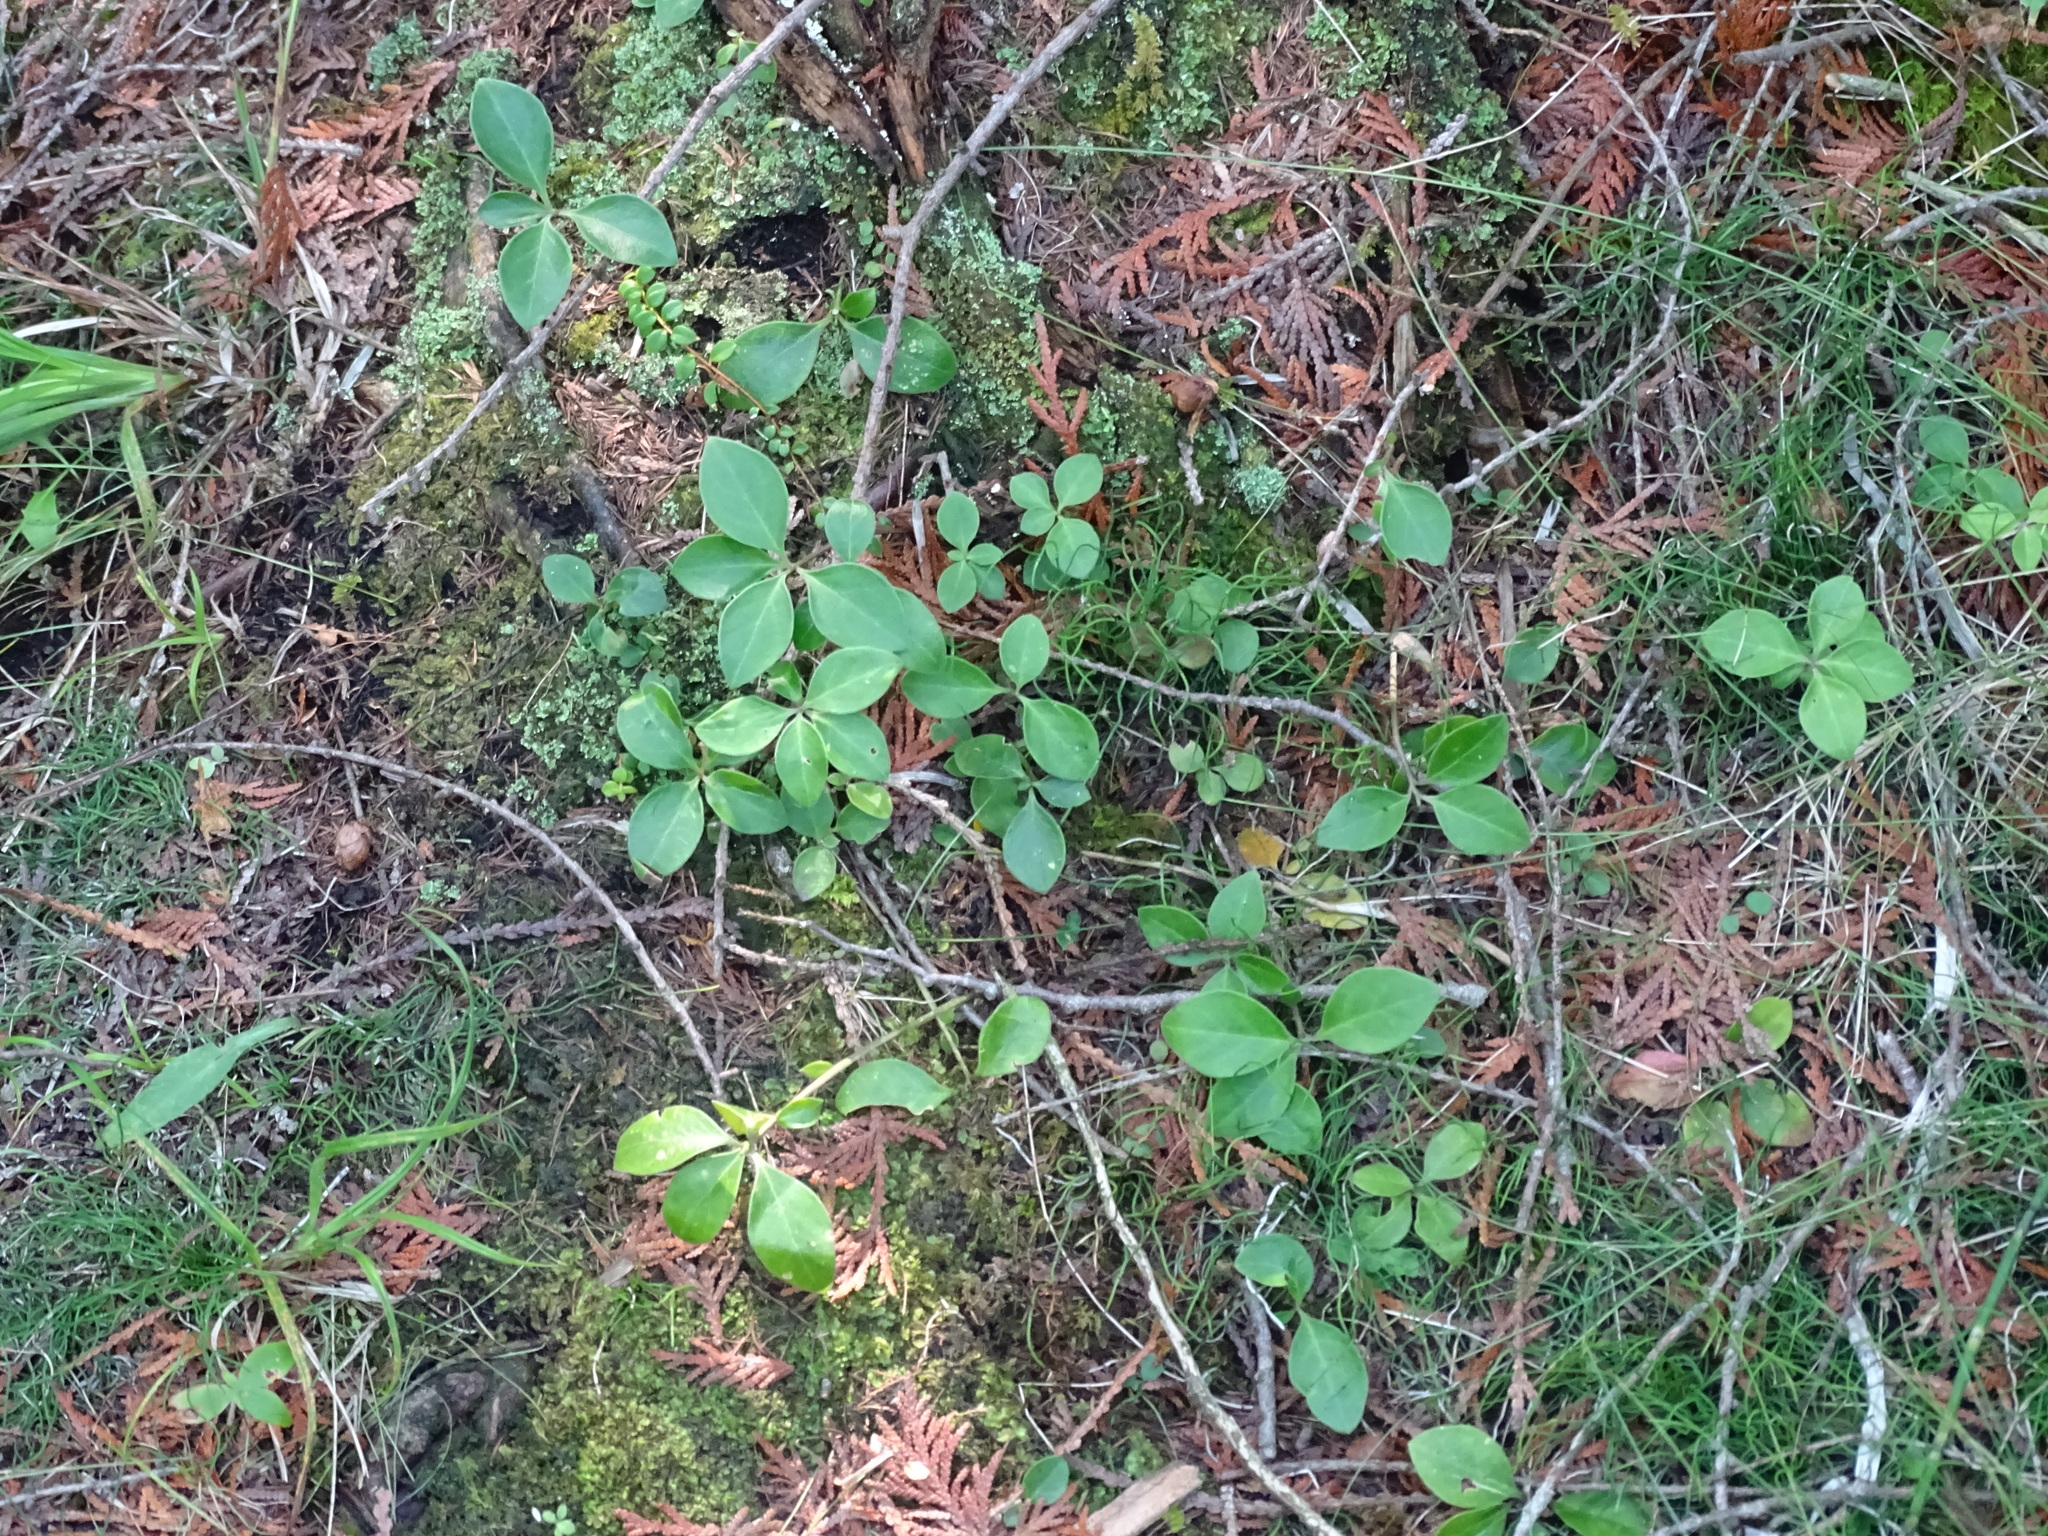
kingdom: Plantae
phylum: Tracheophyta
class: Magnoliopsida
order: Fabales
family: Polygalaceae
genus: Polygaloides
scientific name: Polygaloides paucifolia
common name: Bird-on-the-wing
